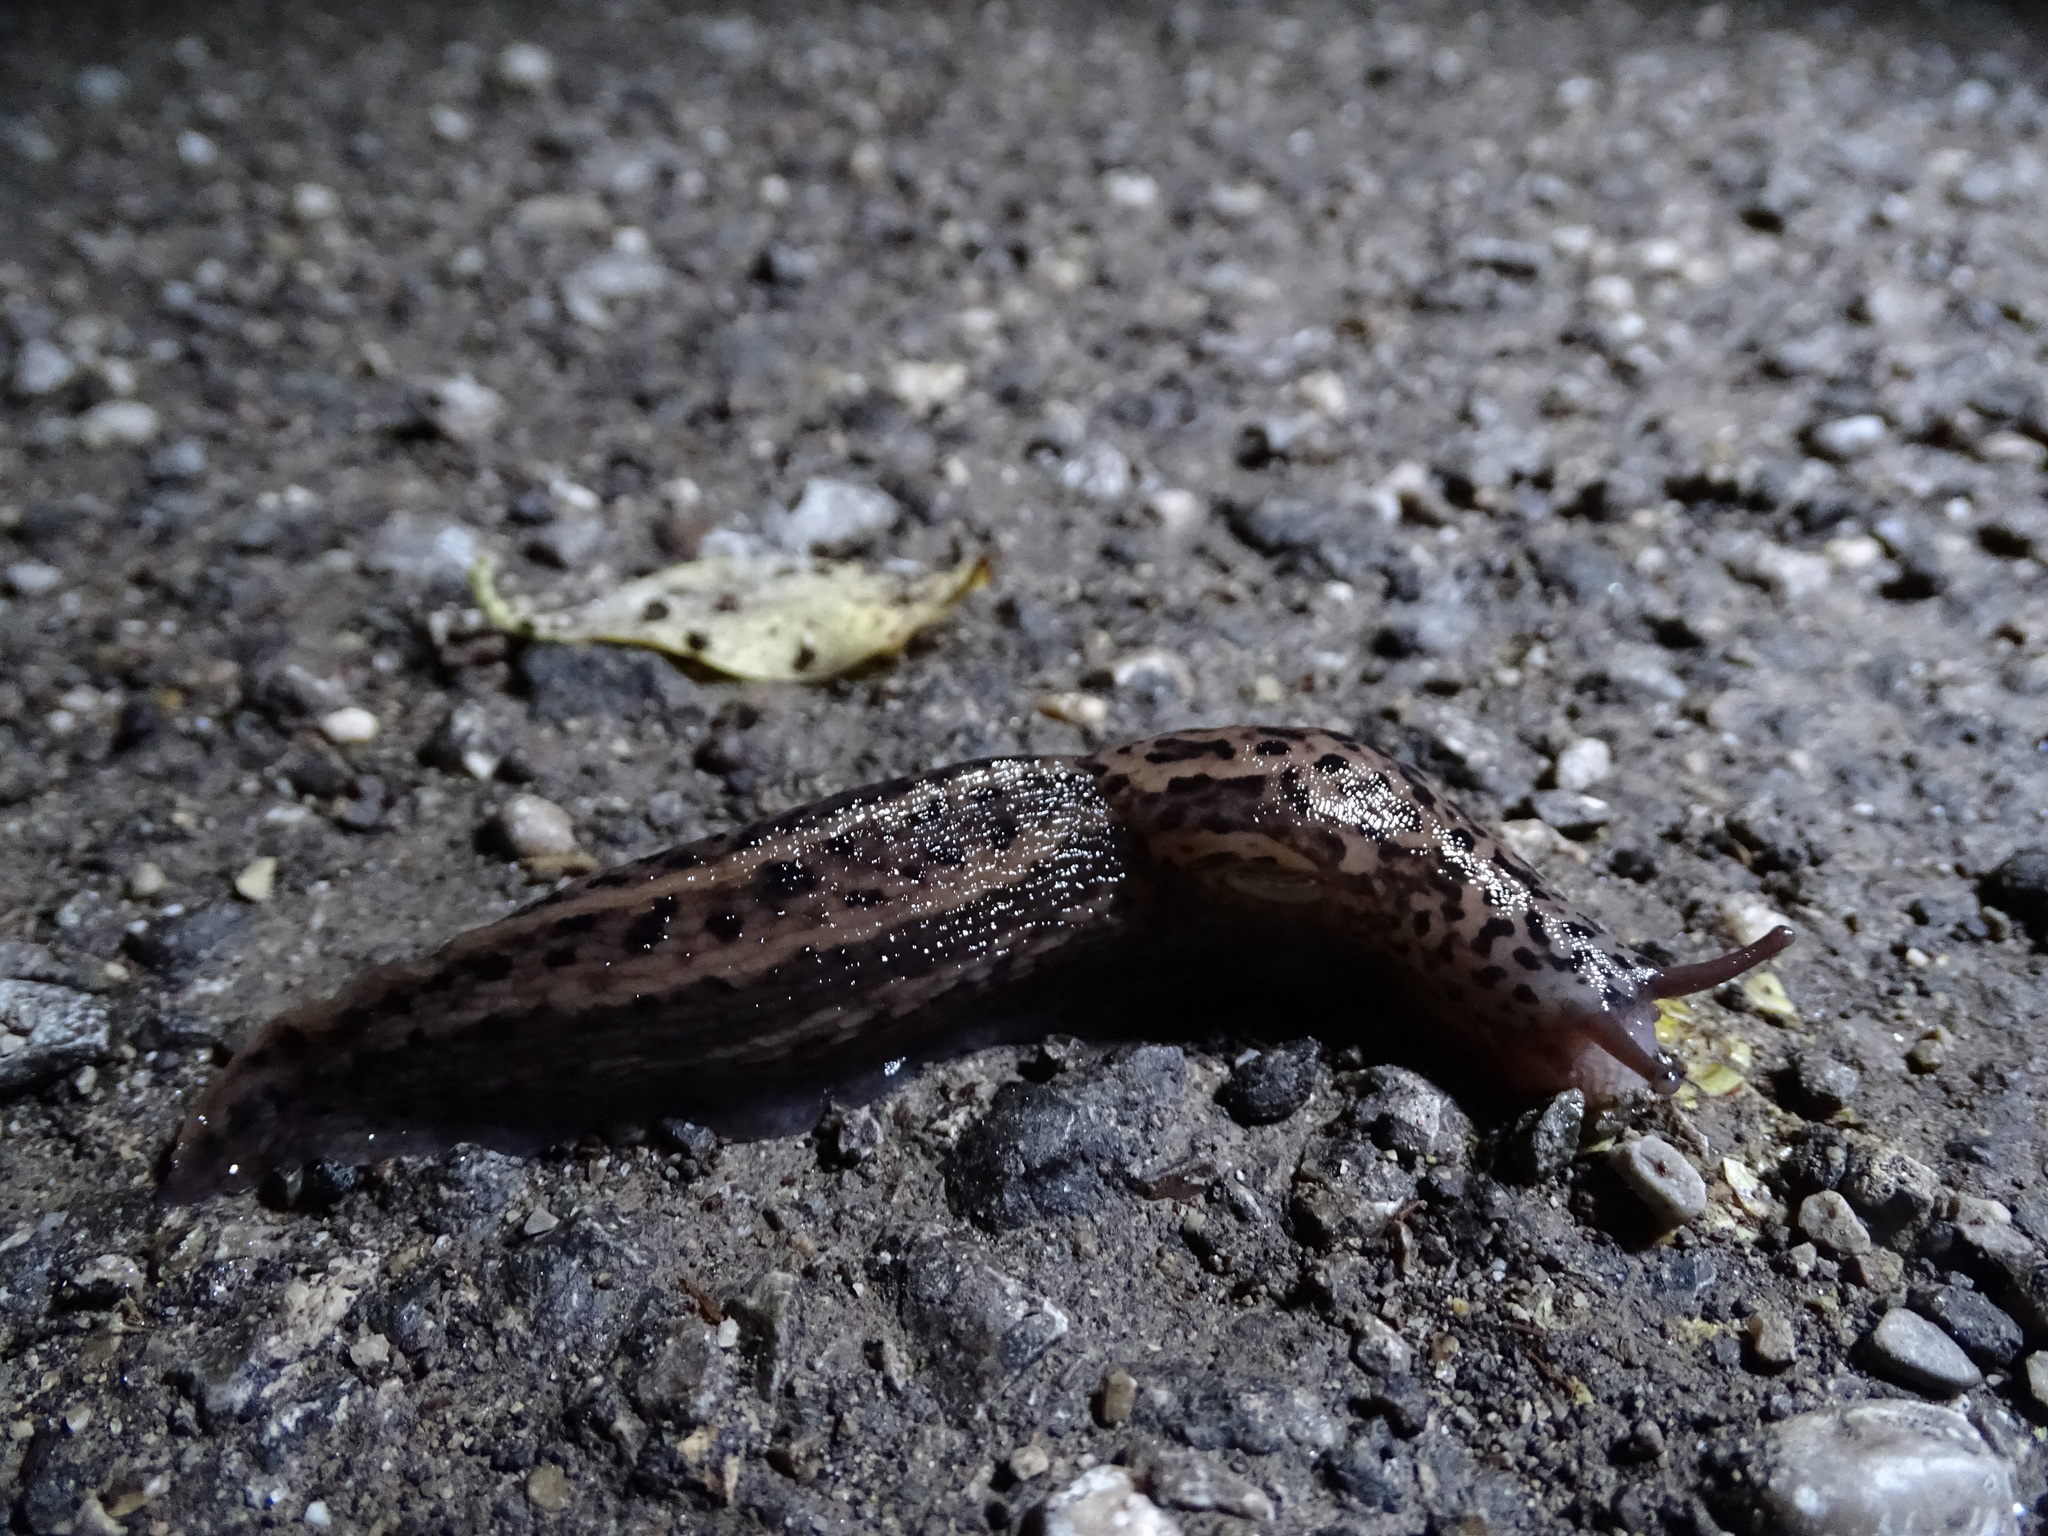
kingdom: Animalia
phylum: Mollusca
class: Gastropoda
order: Stylommatophora
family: Limacidae
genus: Limax
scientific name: Limax maximus
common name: Great grey slug
